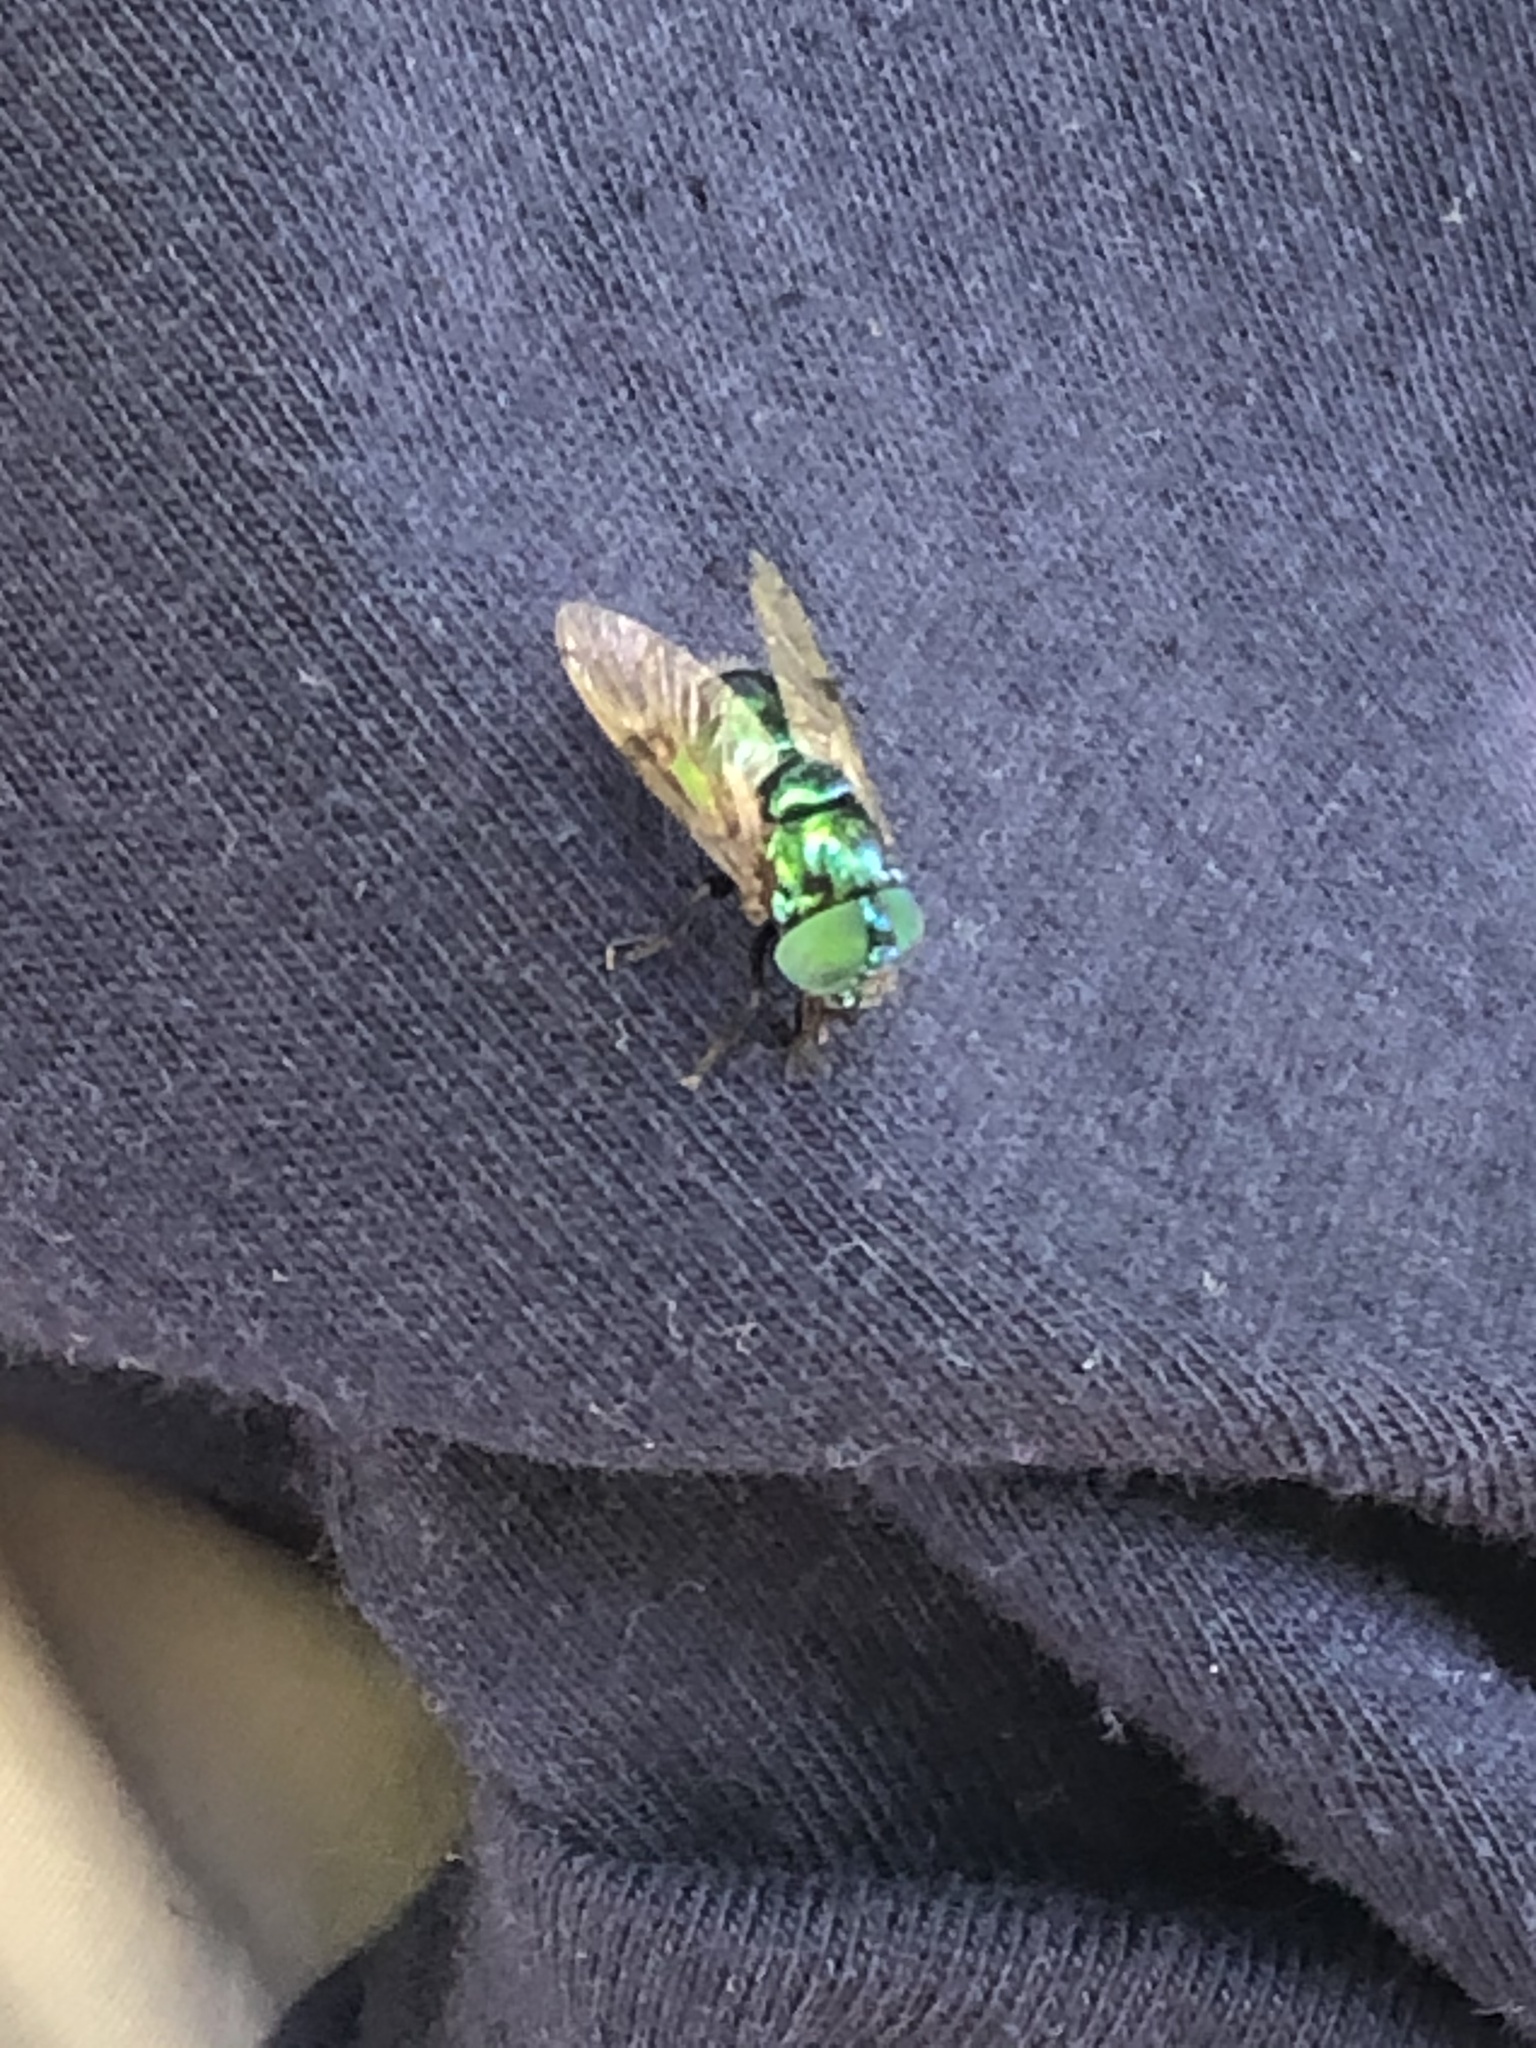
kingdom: Animalia
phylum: Arthropoda
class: Insecta
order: Diptera
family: Syrphidae
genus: Ornidia
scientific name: Ornidia obesa
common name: Syrphid fly
